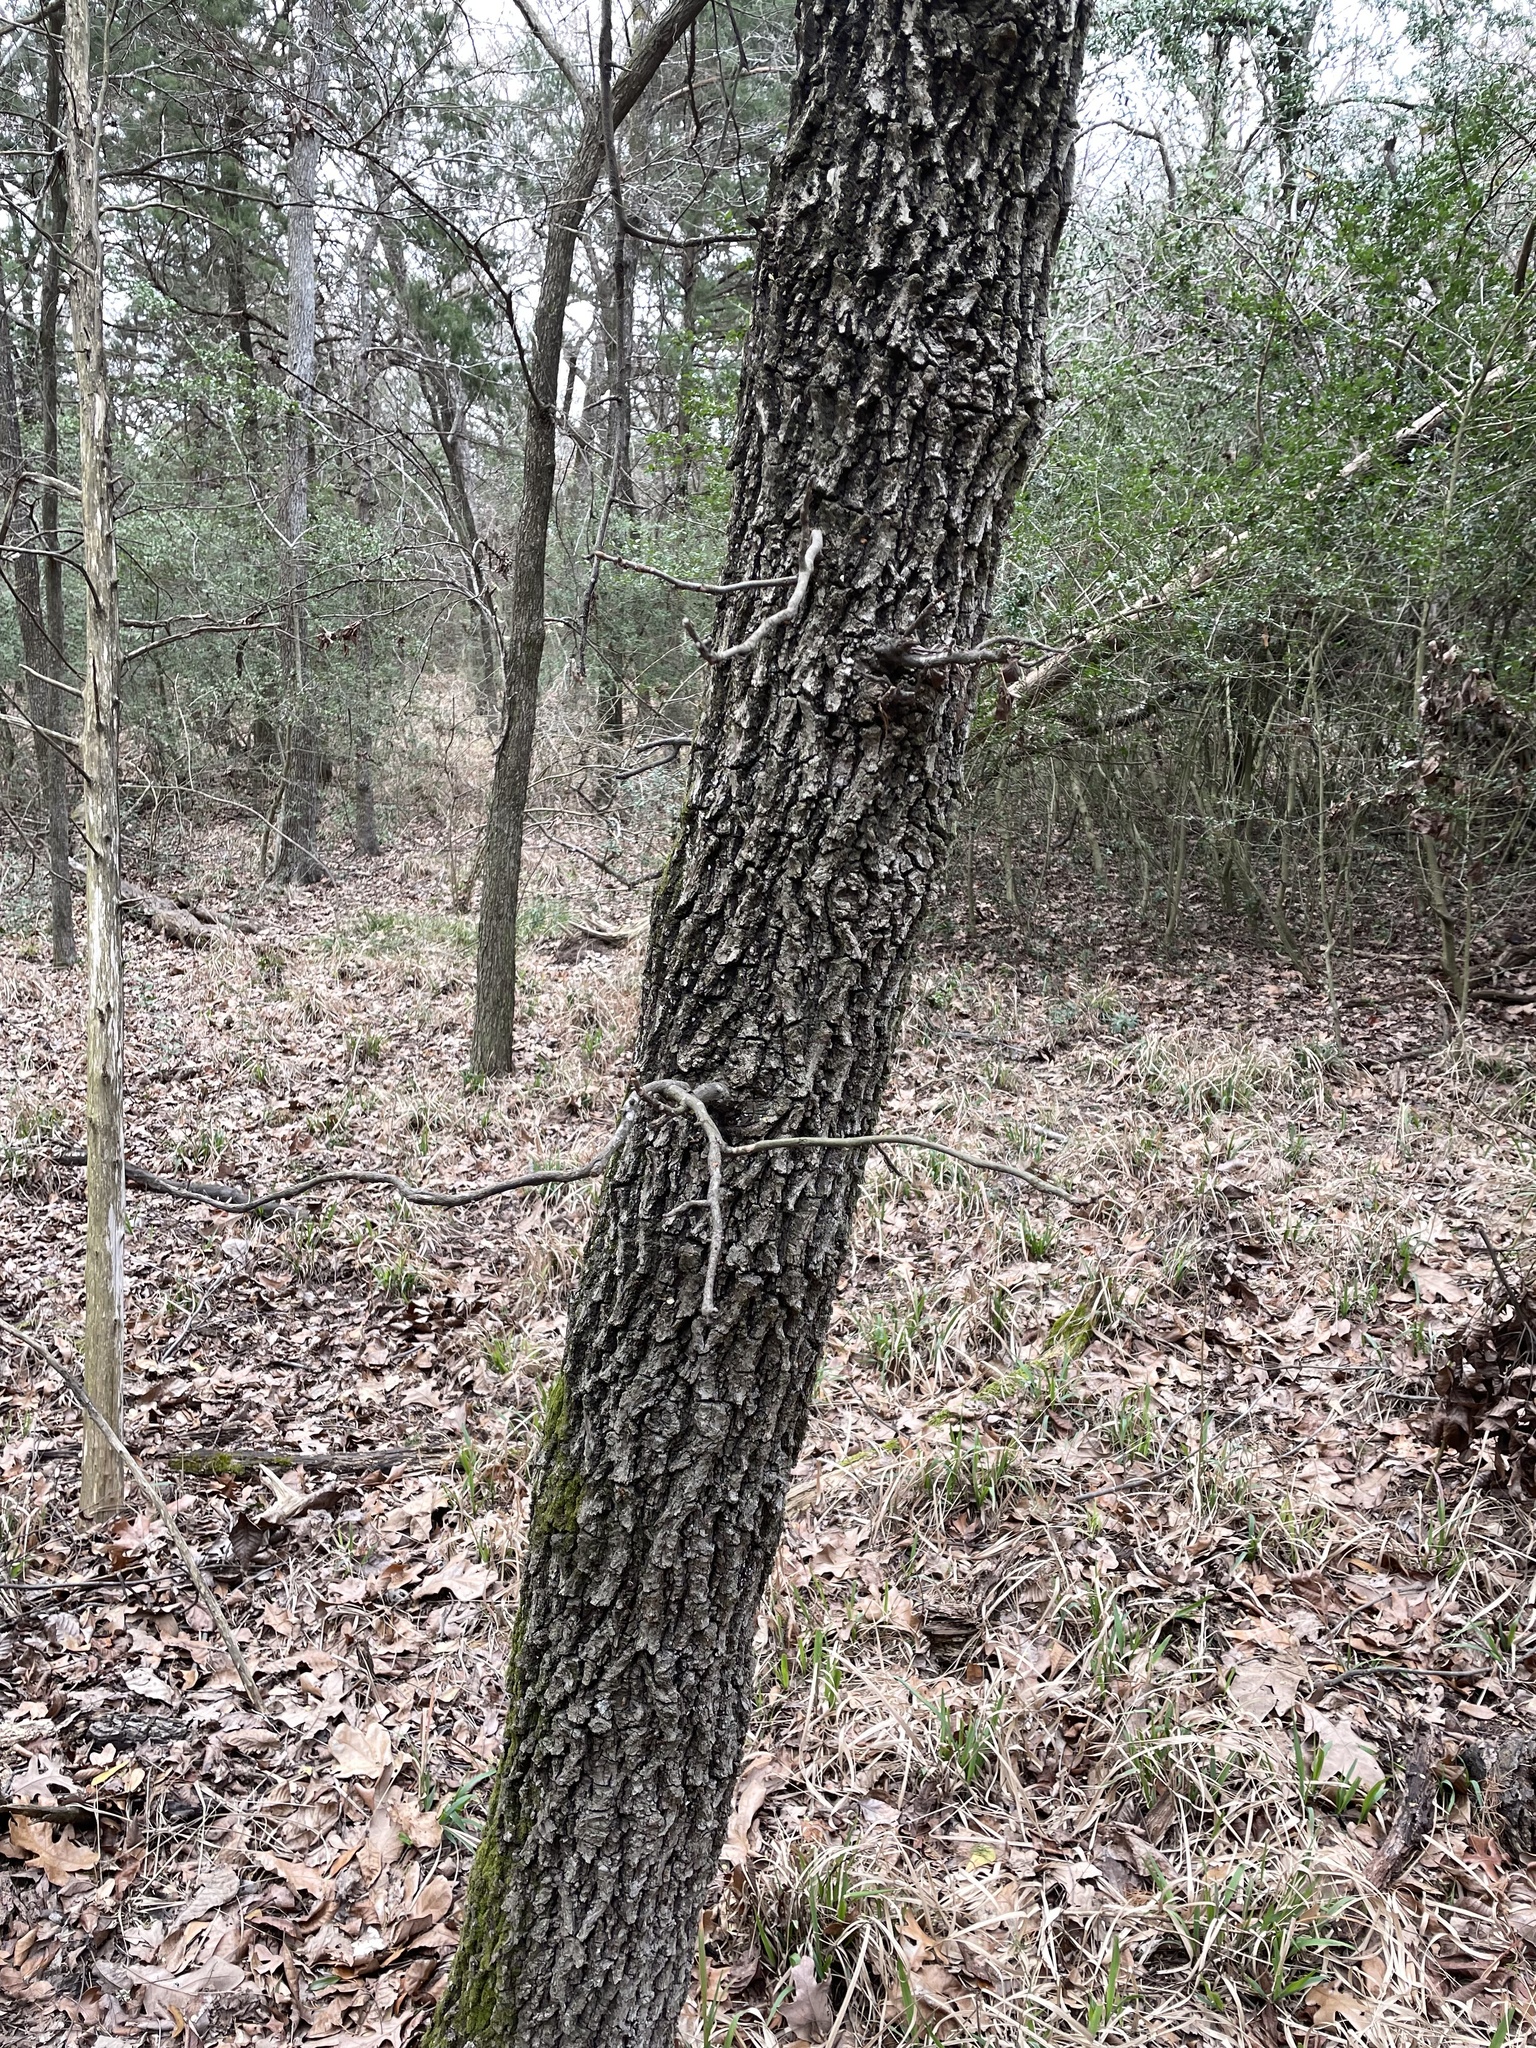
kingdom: Plantae
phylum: Tracheophyta
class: Magnoliopsida
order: Fagales
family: Juglandaceae
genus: Carya
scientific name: Carya texana
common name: Black hickory
